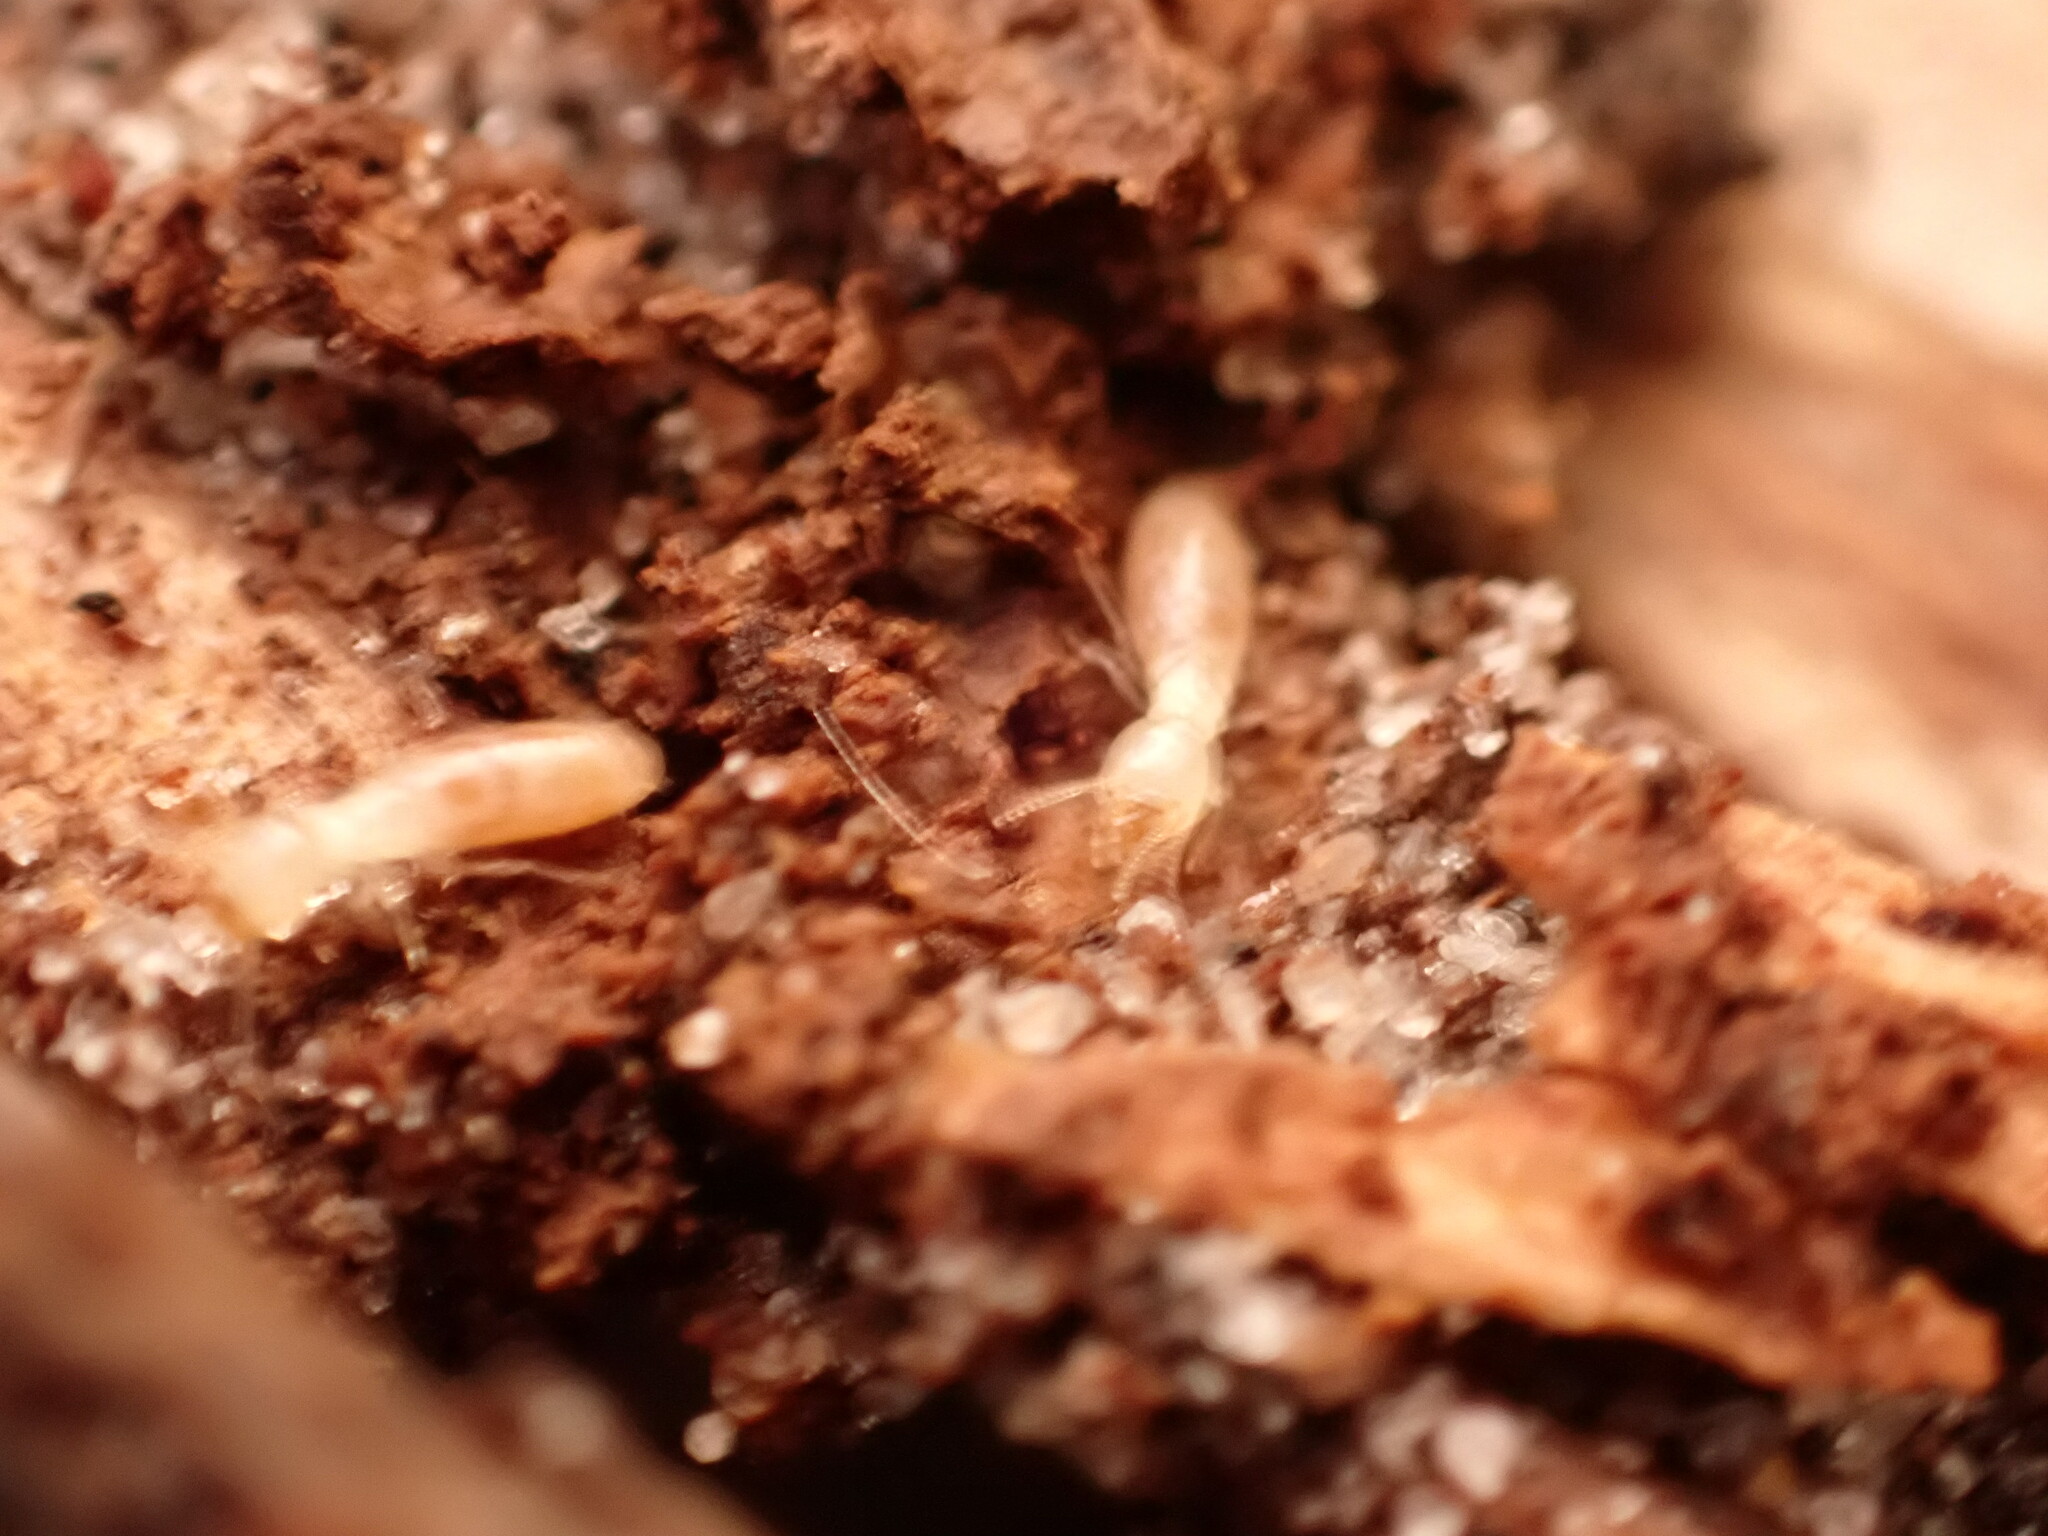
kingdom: Animalia
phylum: Arthropoda
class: Insecta
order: Blattodea
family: Rhinotermitidae
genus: Reticulitermes
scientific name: Reticulitermes flavipes
